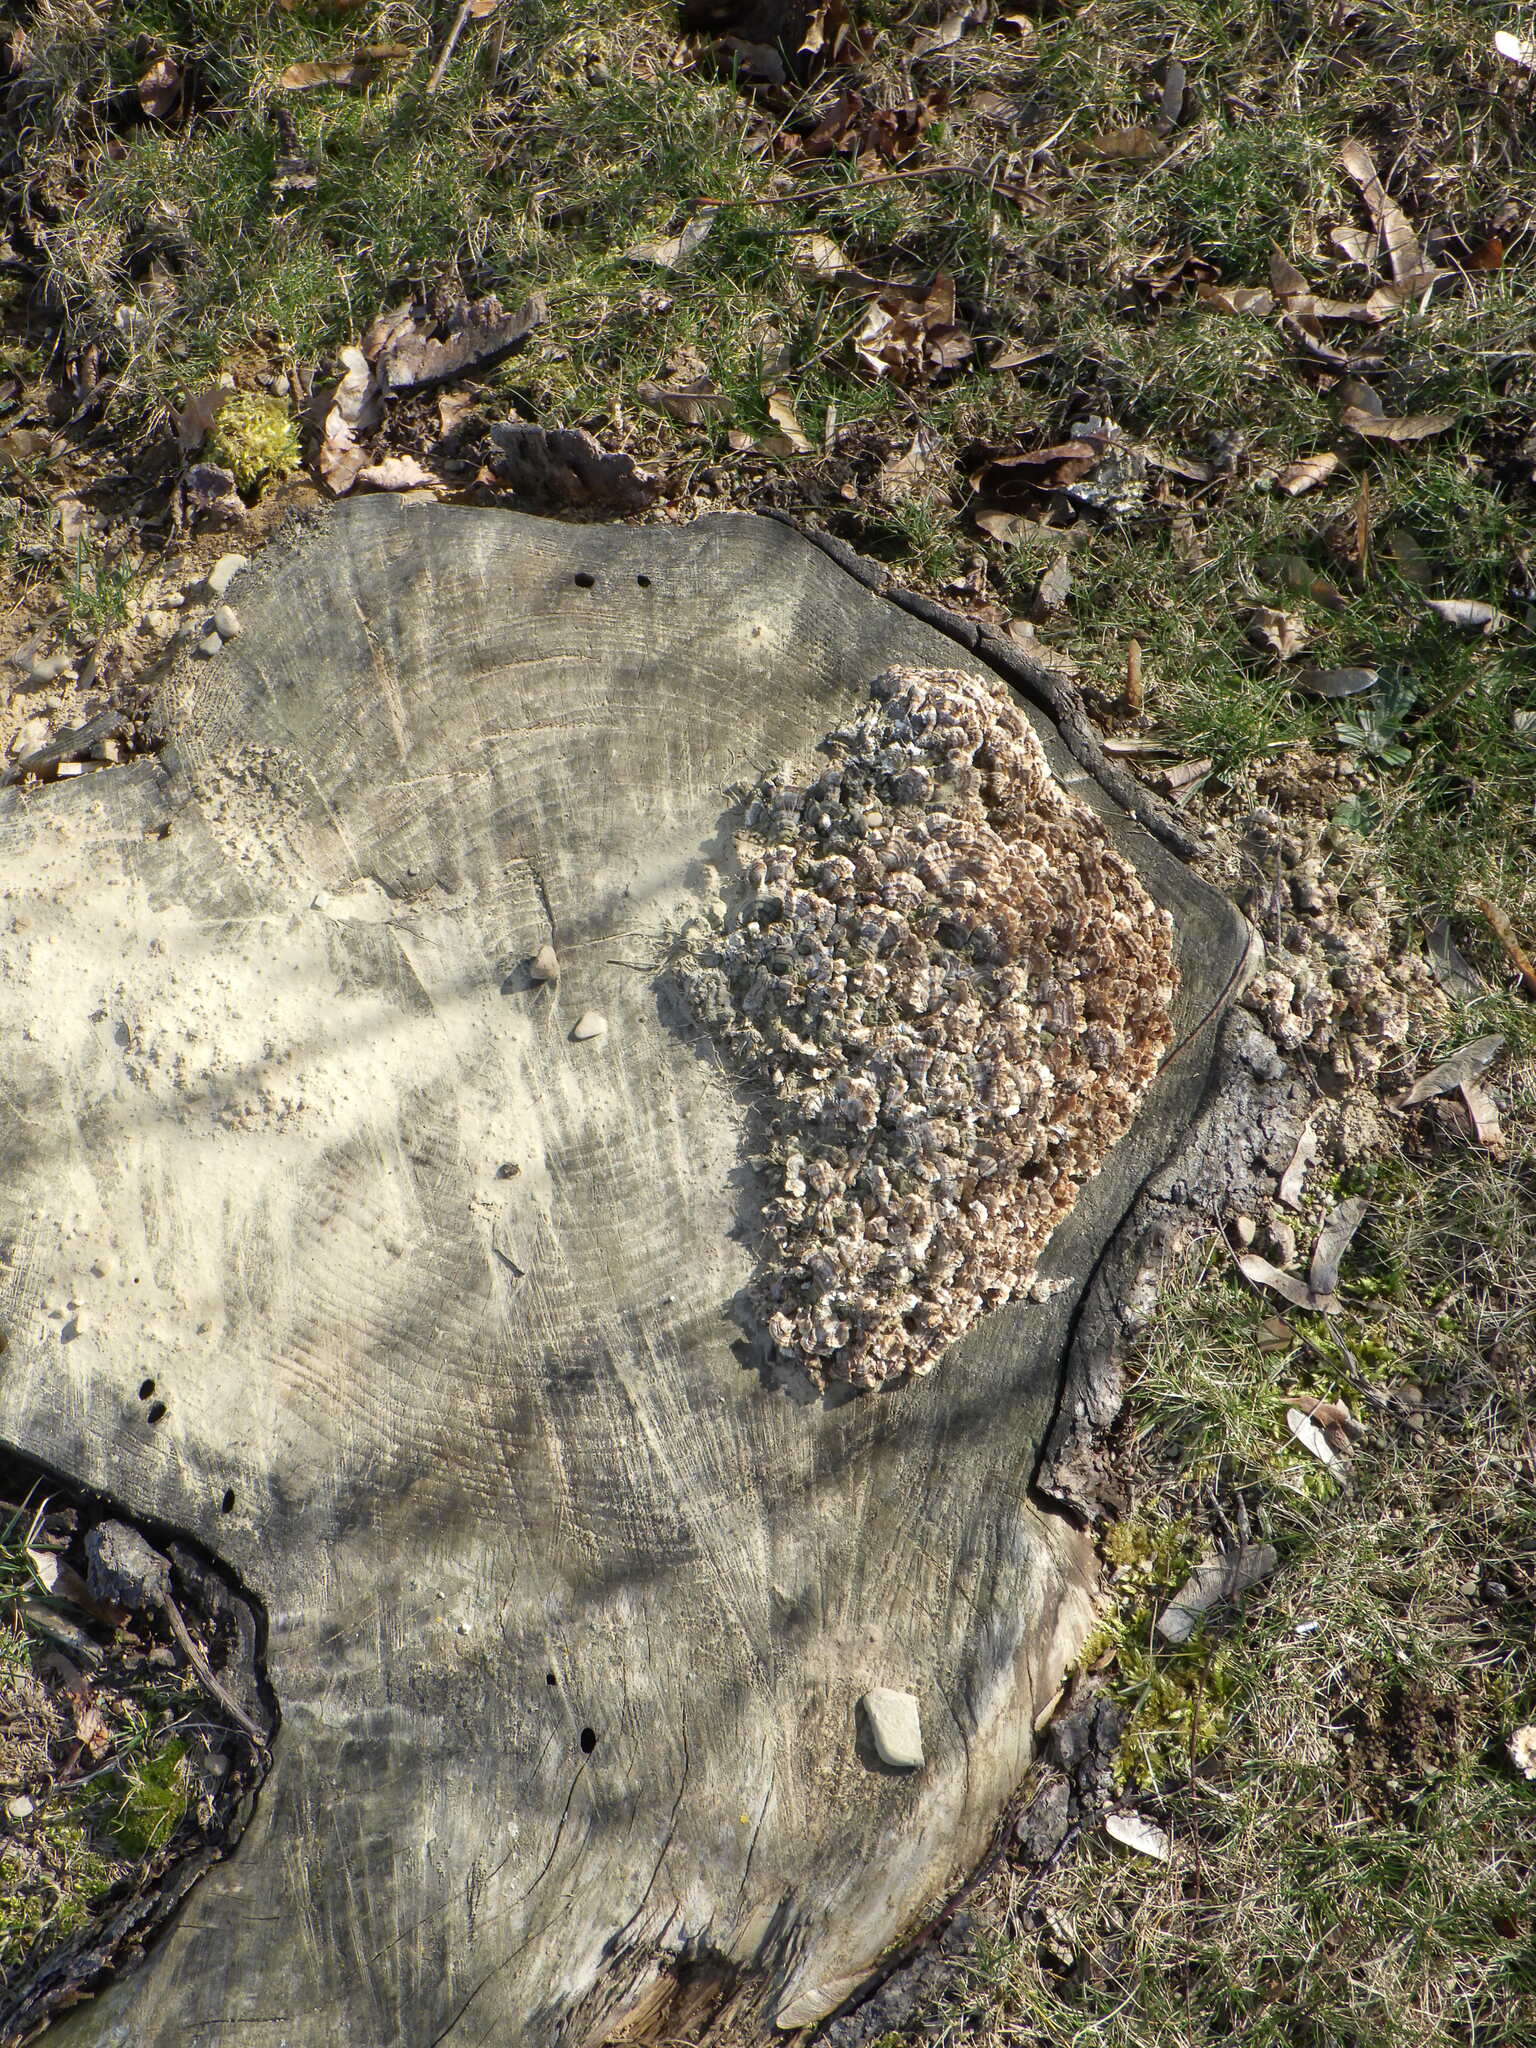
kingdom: Fungi
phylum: Basidiomycota
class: Agaricomycetes
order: Polyporales
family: Polyporaceae
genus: Trametes
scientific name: Trametes versicolor
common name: Turkeytail
